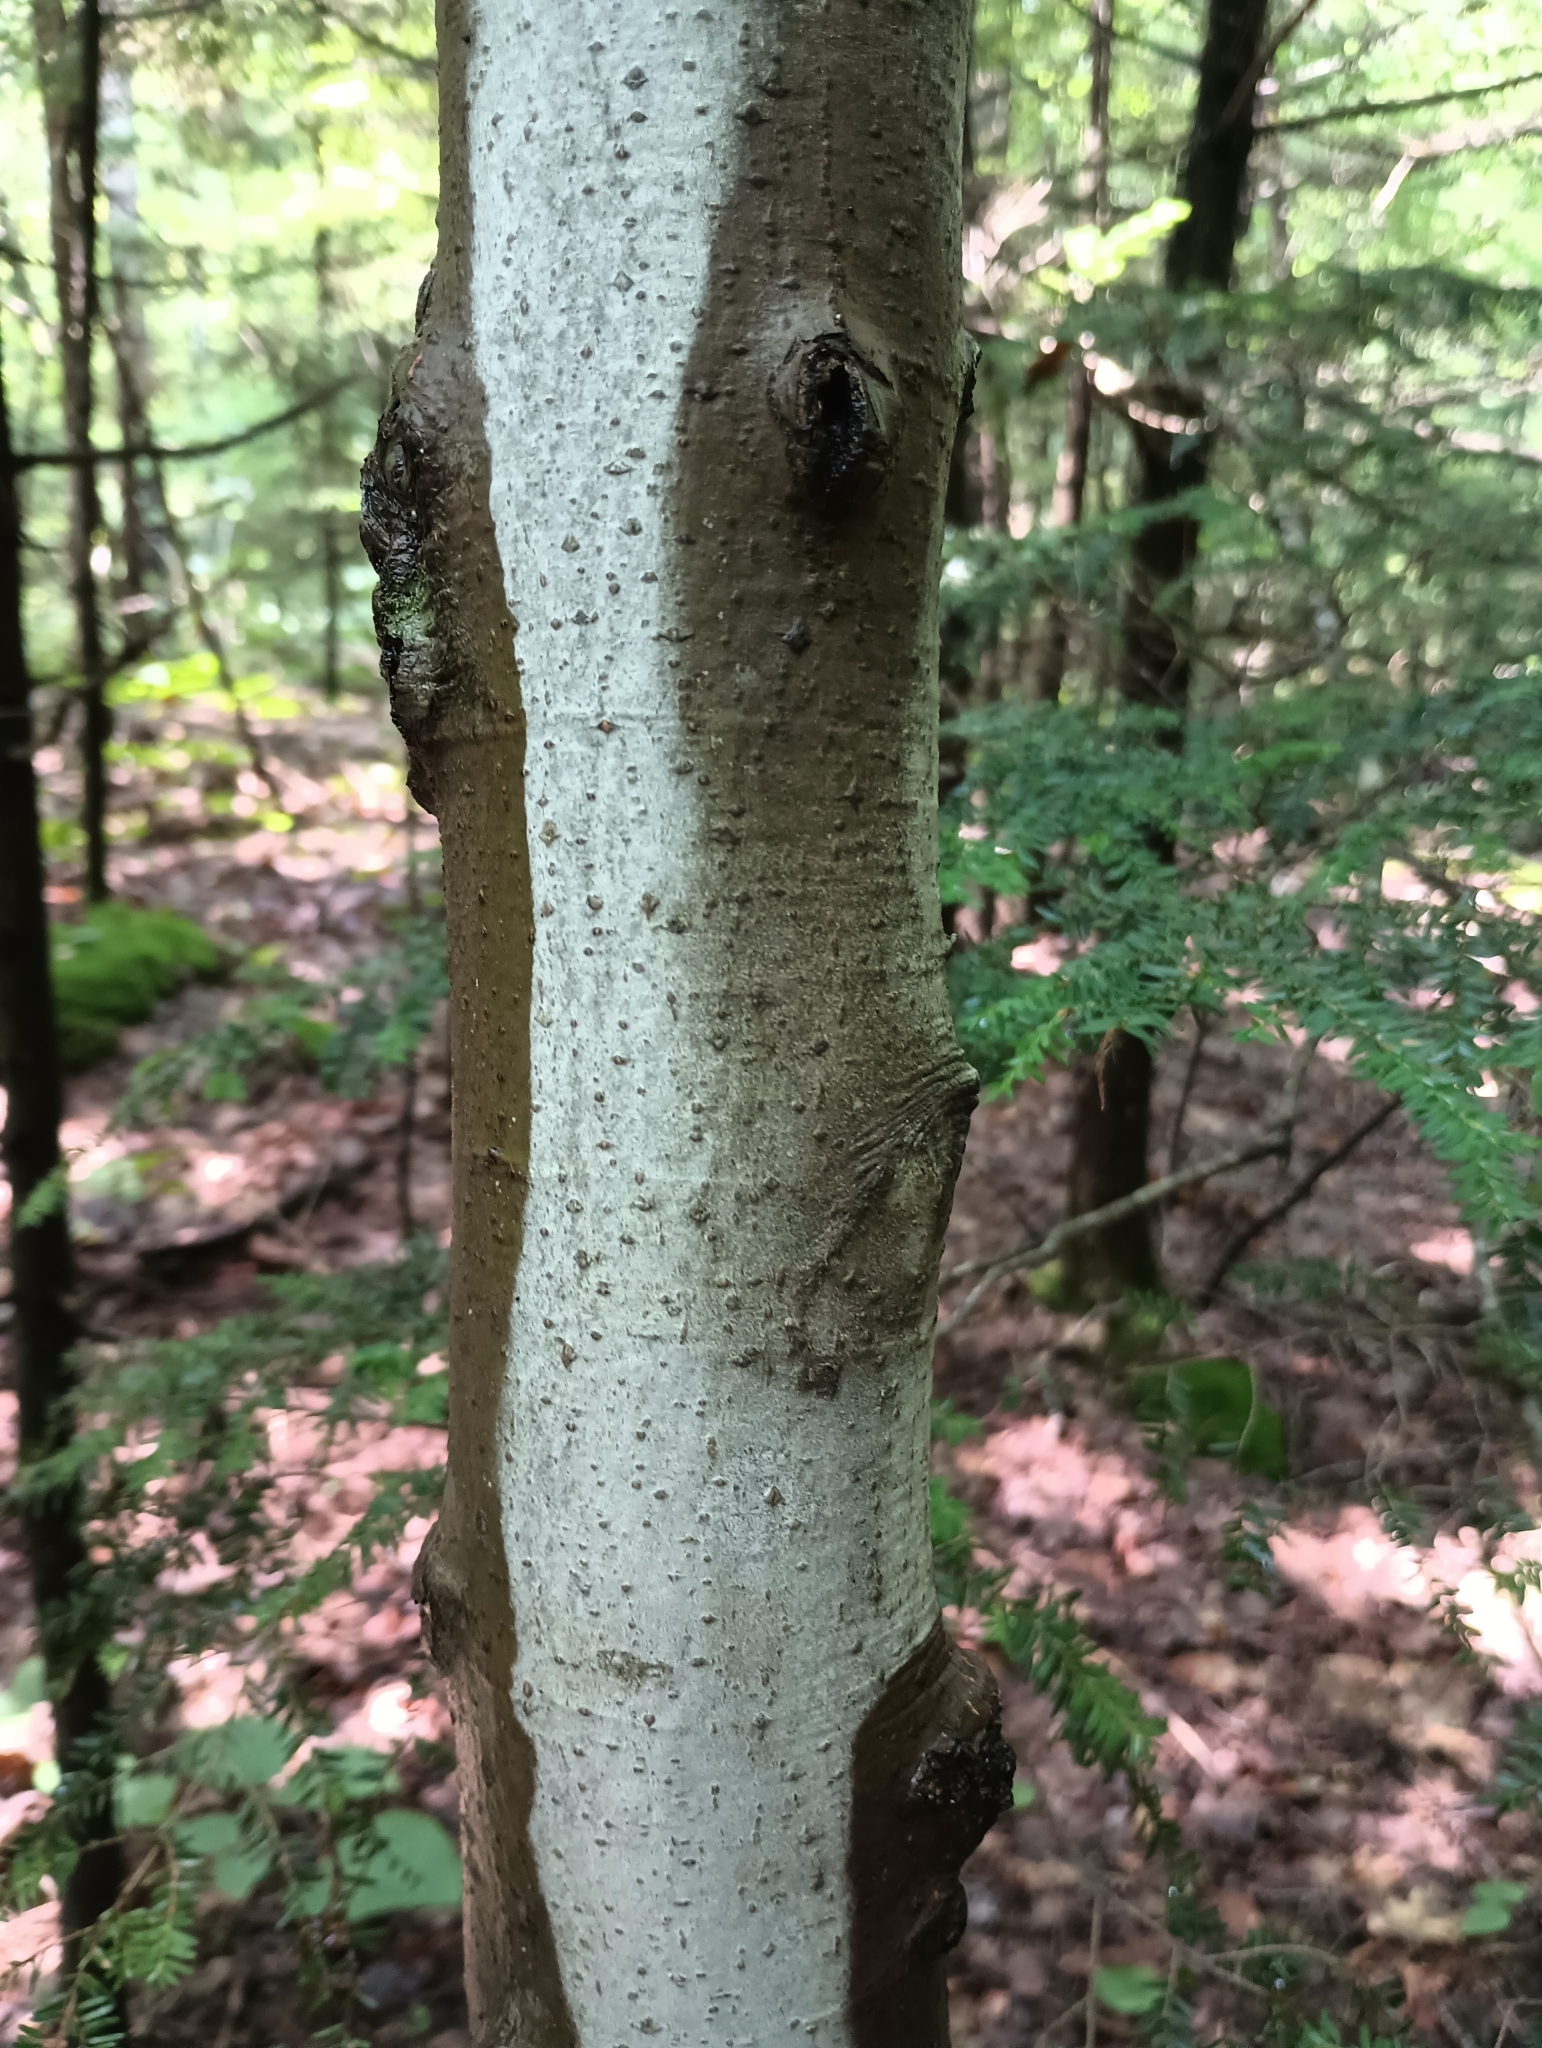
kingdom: Plantae
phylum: Tracheophyta
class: Magnoliopsida
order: Fagales
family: Fagaceae
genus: Fagus
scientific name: Fagus grandifolia
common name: American beech
